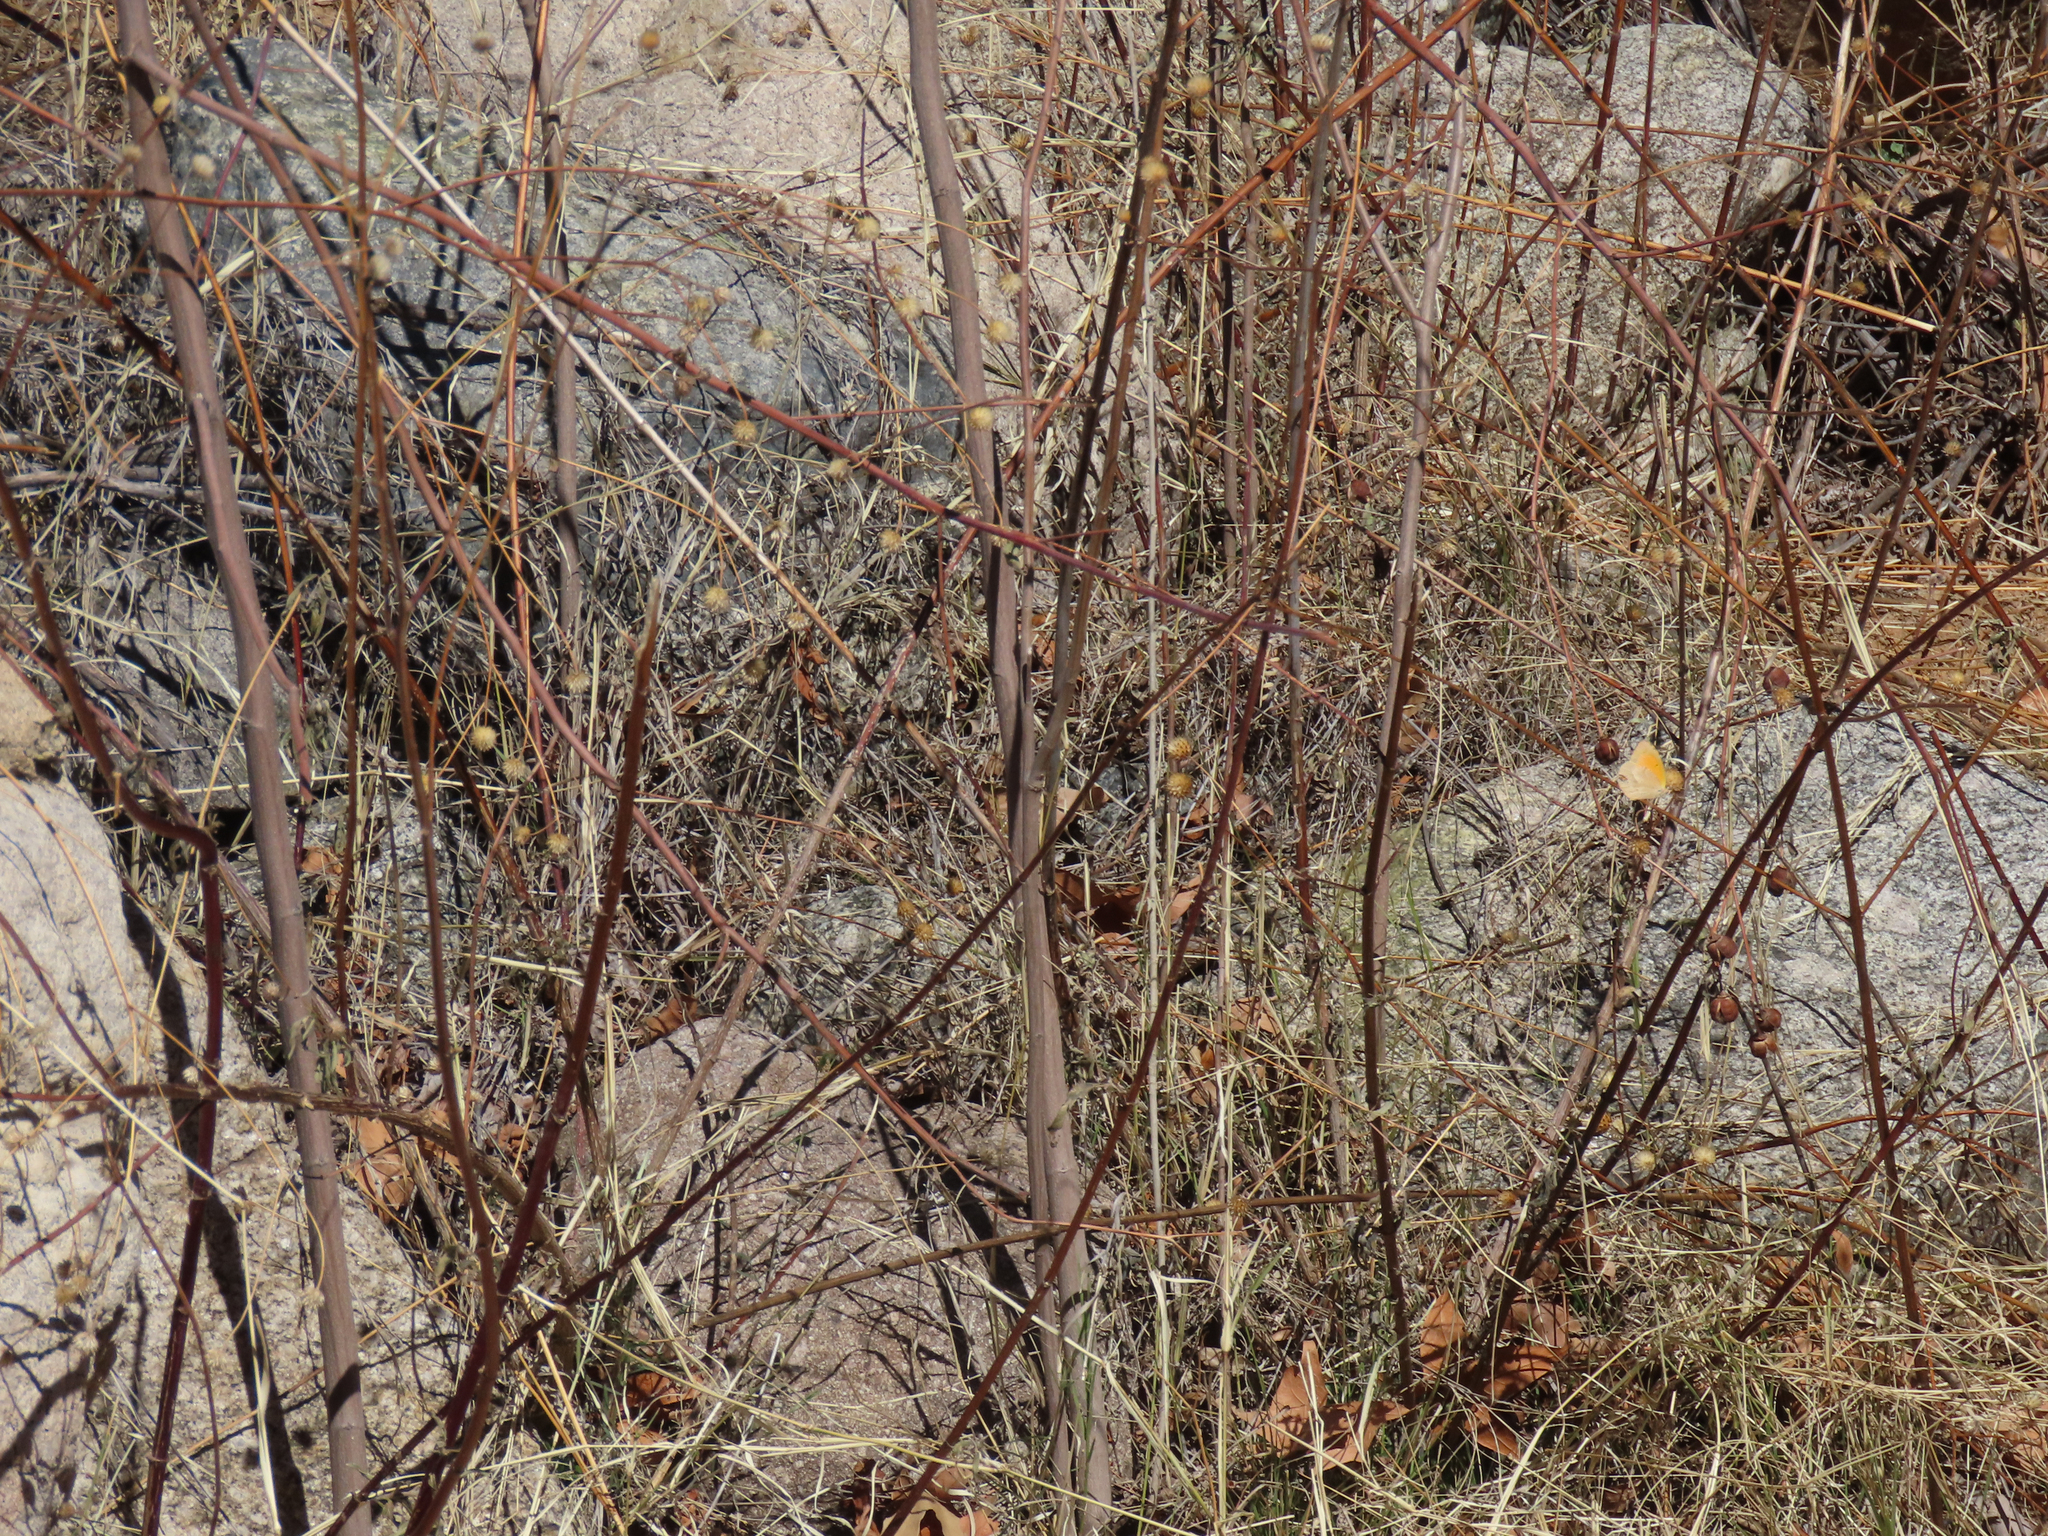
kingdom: Animalia
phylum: Arthropoda
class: Insecta
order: Lepidoptera
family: Pieridae
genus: Abaeis
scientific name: Abaeis nicippe
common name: Sleepy orange
